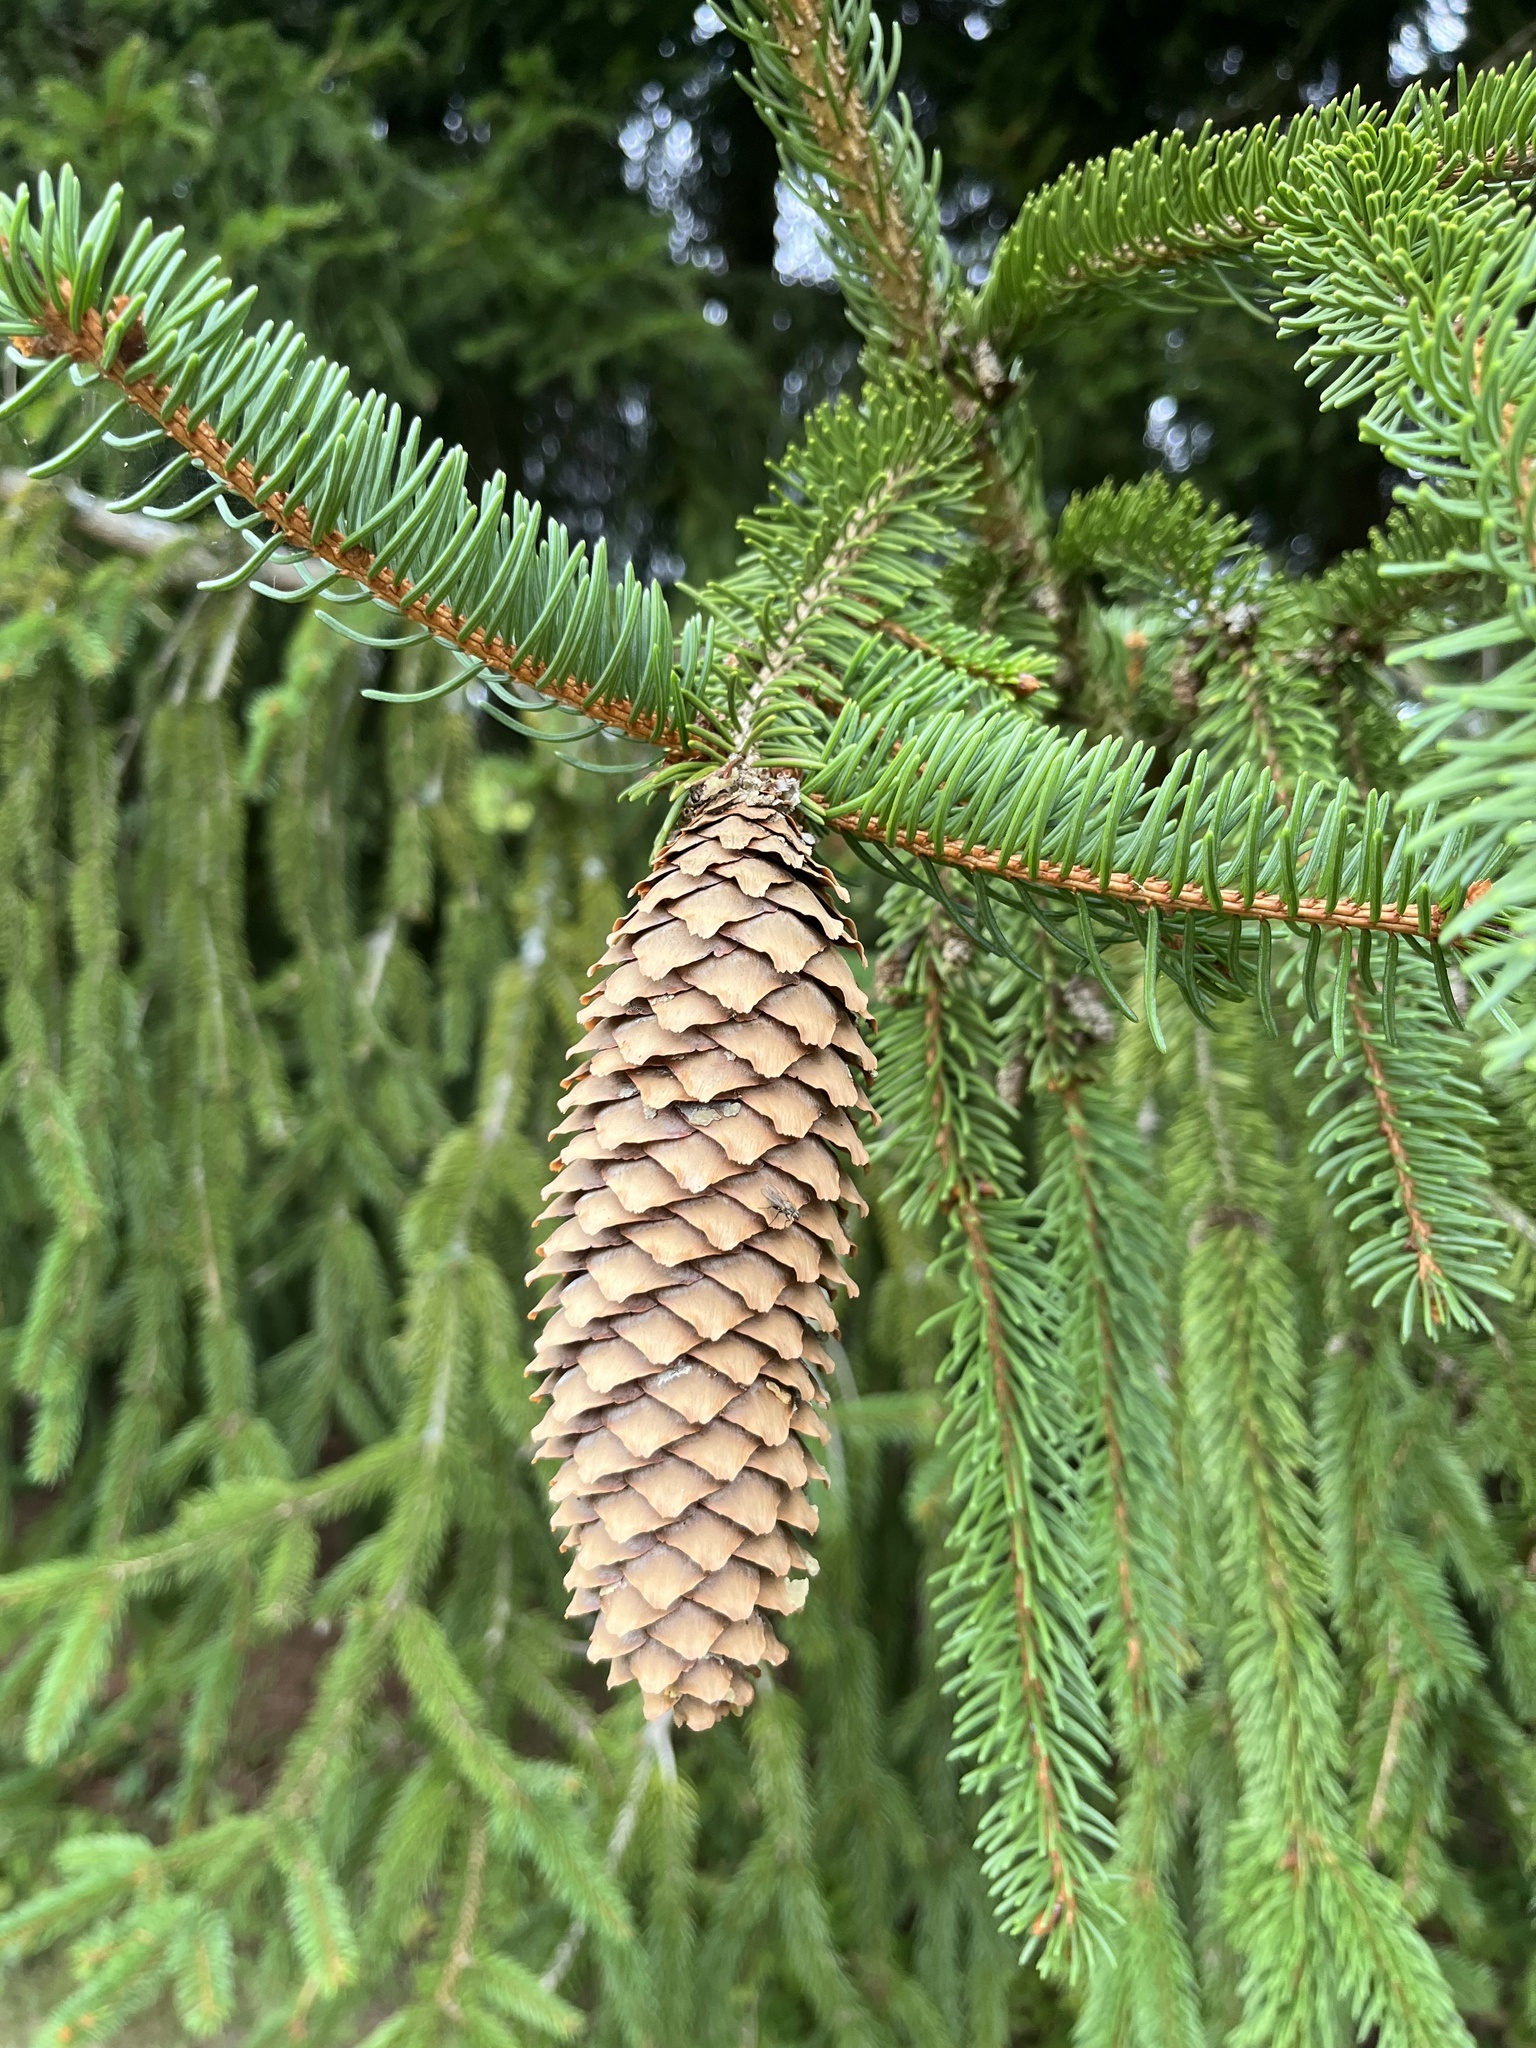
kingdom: Plantae
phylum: Tracheophyta
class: Pinopsida
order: Pinales
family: Pinaceae
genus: Picea
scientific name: Picea abies
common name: Norway spruce
